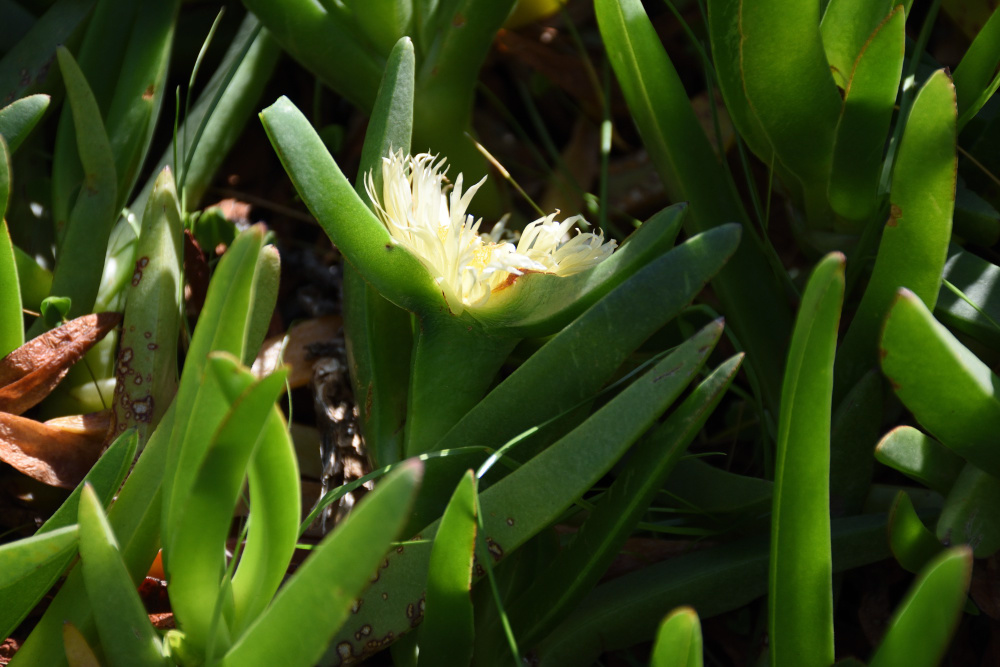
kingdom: Plantae
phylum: Tracheophyta
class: Magnoliopsida
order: Caryophyllales
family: Aizoaceae
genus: Carpobrotus
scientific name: Carpobrotus edulis
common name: Hottentot-fig
